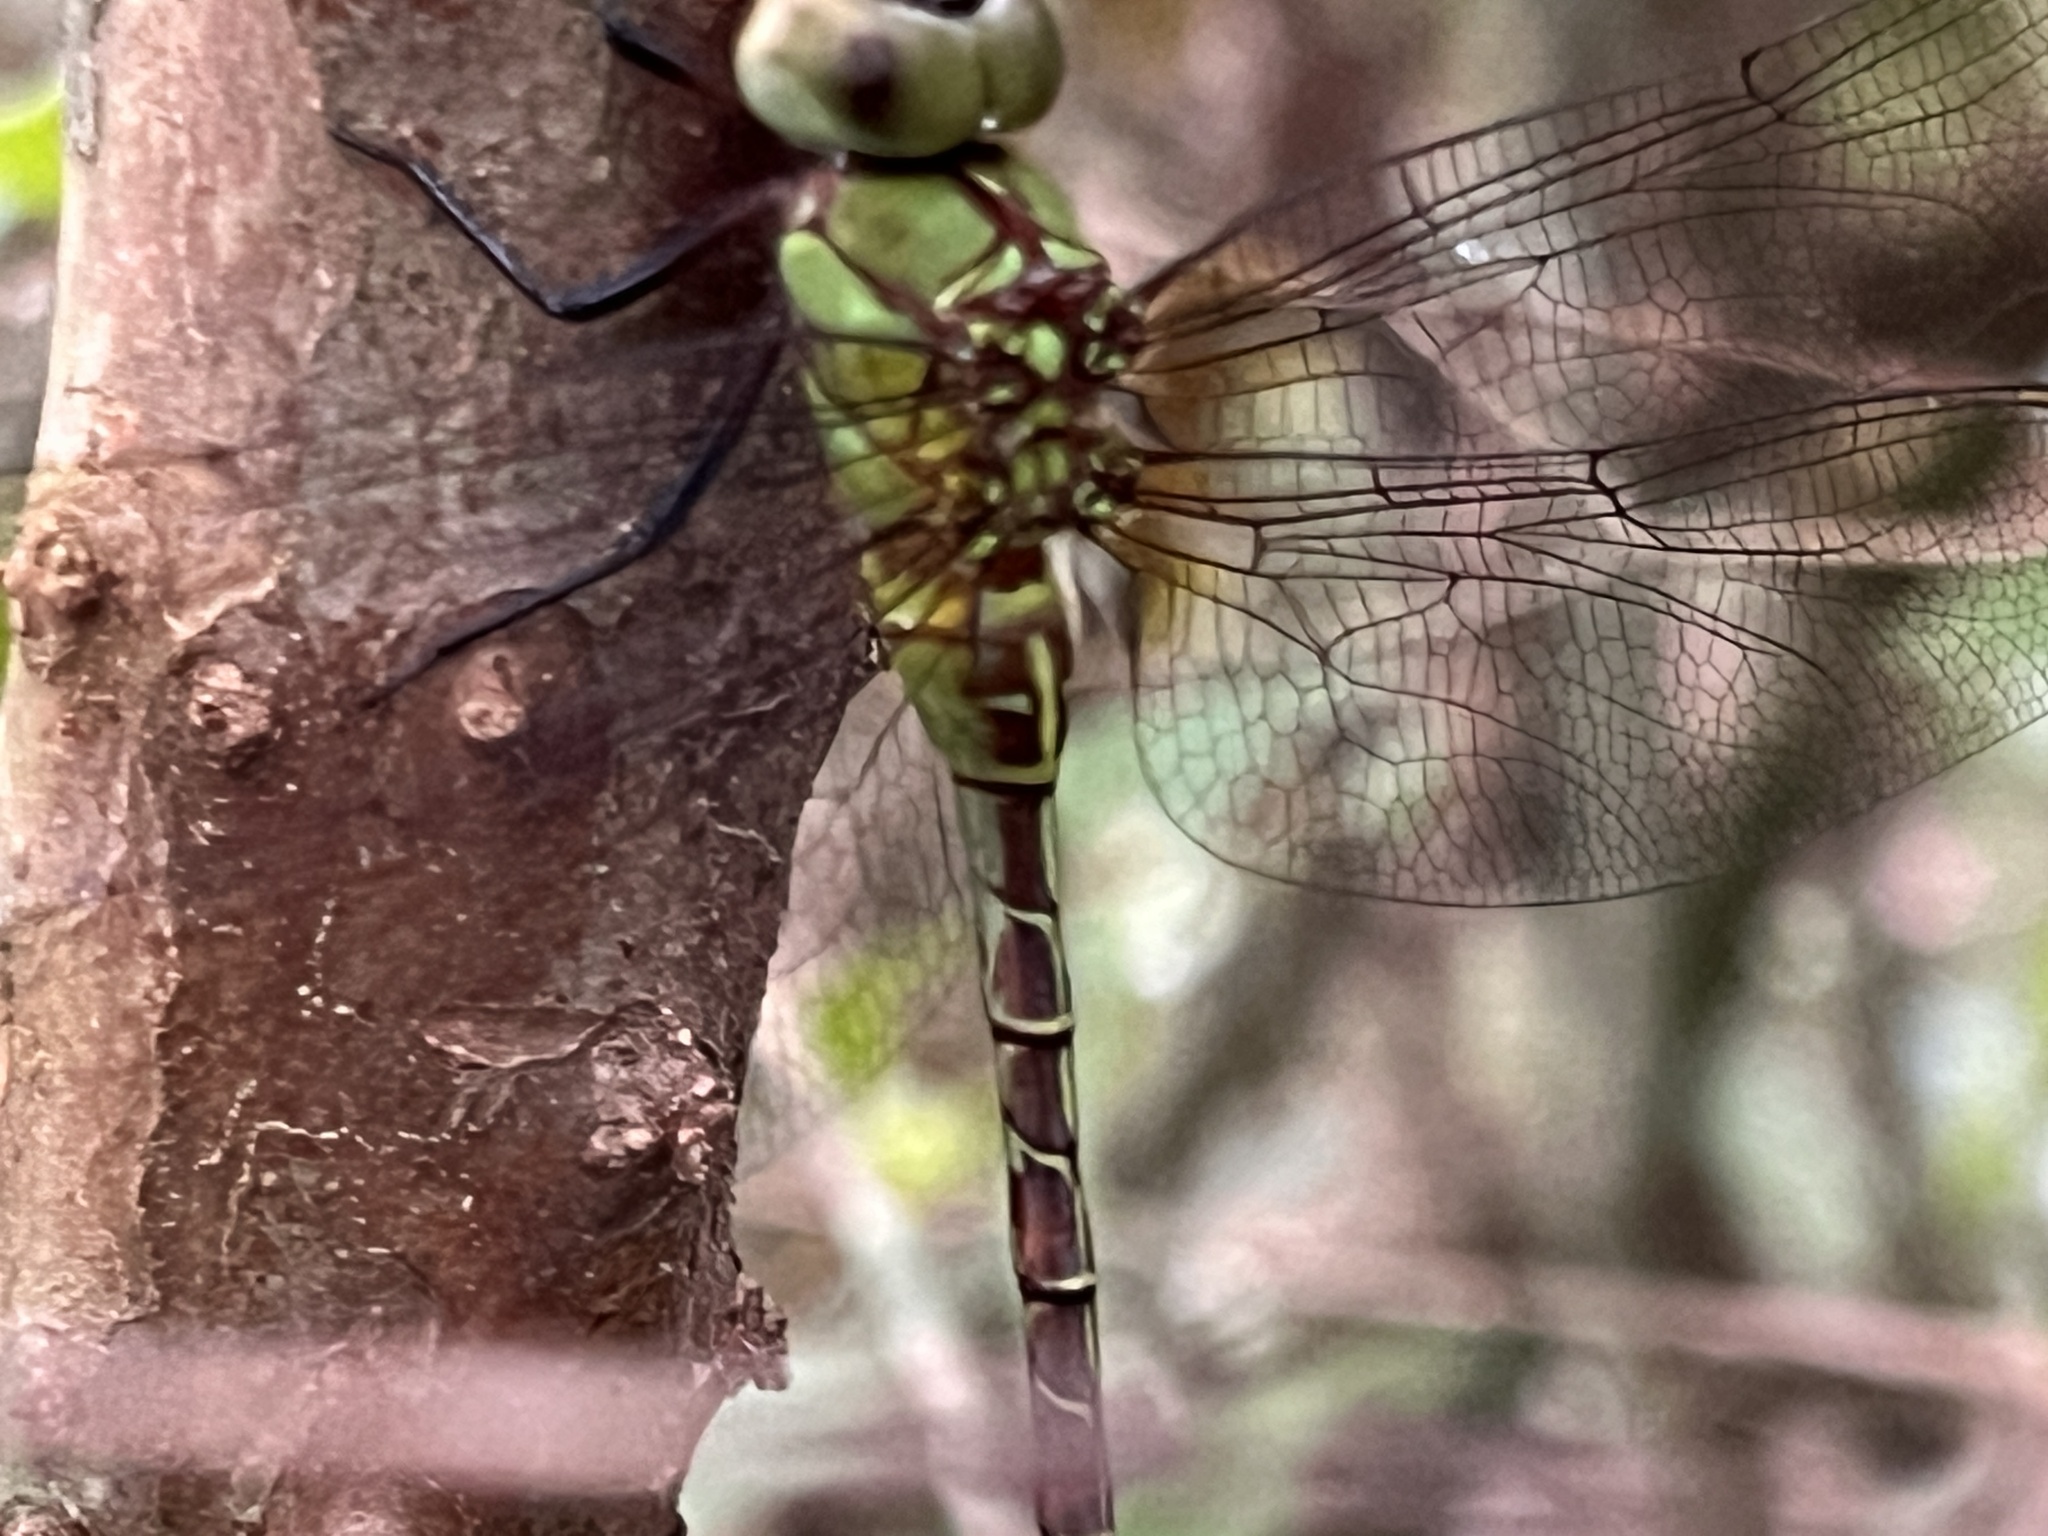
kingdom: Animalia
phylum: Arthropoda
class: Insecta
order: Odonata
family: Aeshnidae
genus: Coryphaeschna
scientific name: Coryphaeschna adnexa
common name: Blue-faced darner
